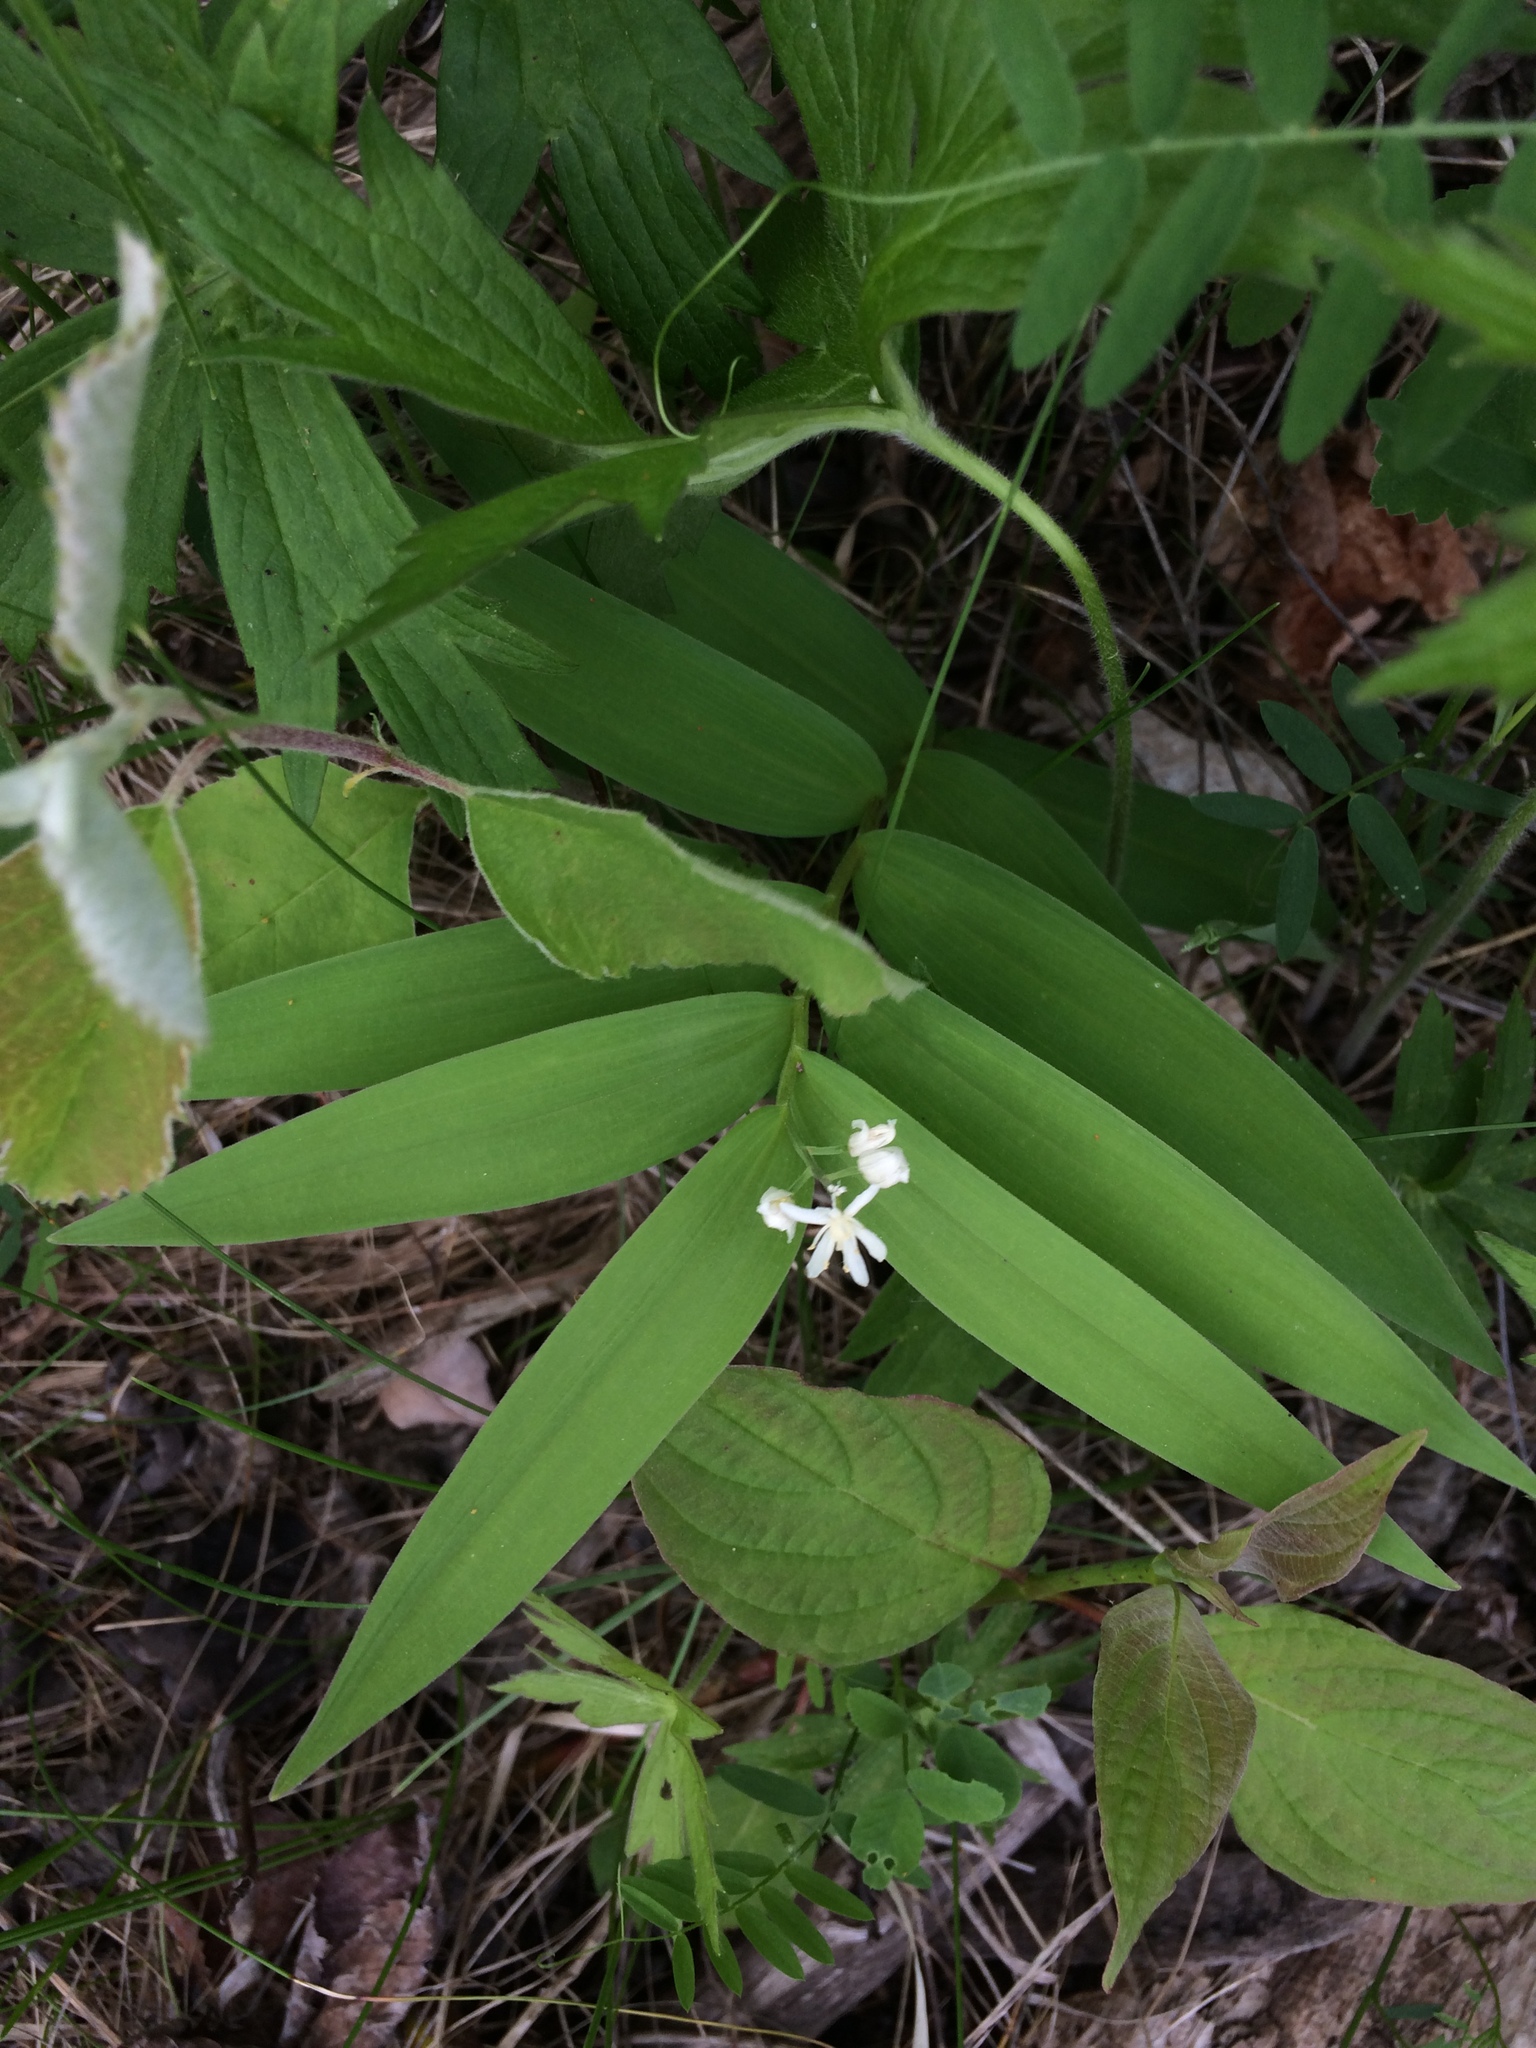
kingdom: Plantae
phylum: Tracheophyta
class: Liliopsida
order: Asparagales
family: Asparagaceae
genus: Maianthemum
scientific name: Maianthemum stellatum
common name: Little false solomon's seal
